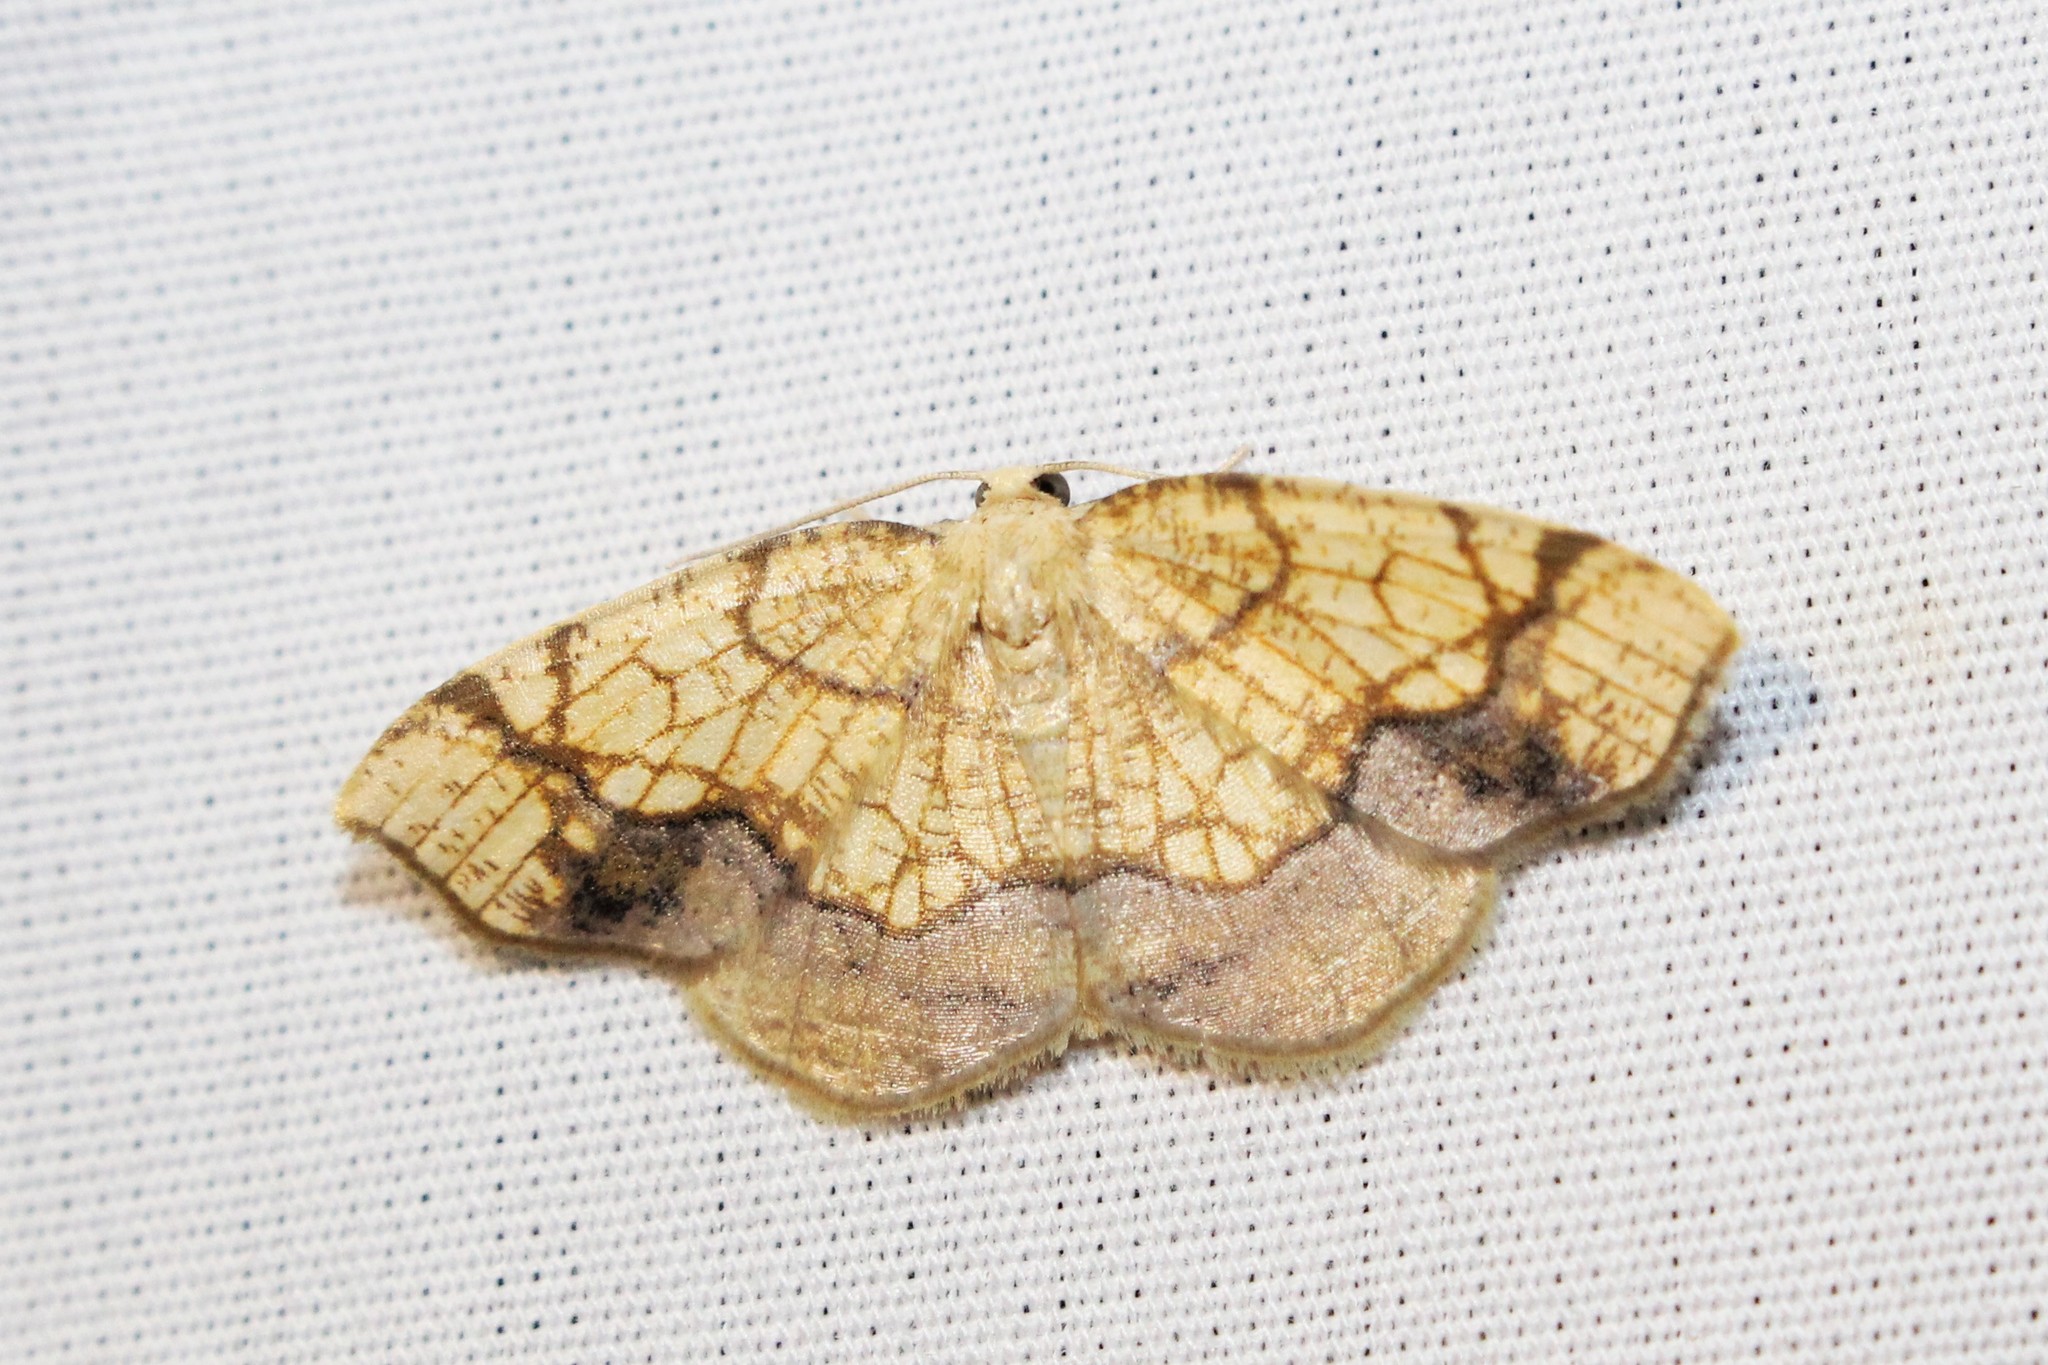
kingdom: Animalia
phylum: Arthropoda
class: Insecta
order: Lepidoptera
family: Geometridae
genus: Nematocampa
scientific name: Nematocampa resistaria
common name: Horned spanworm moth
